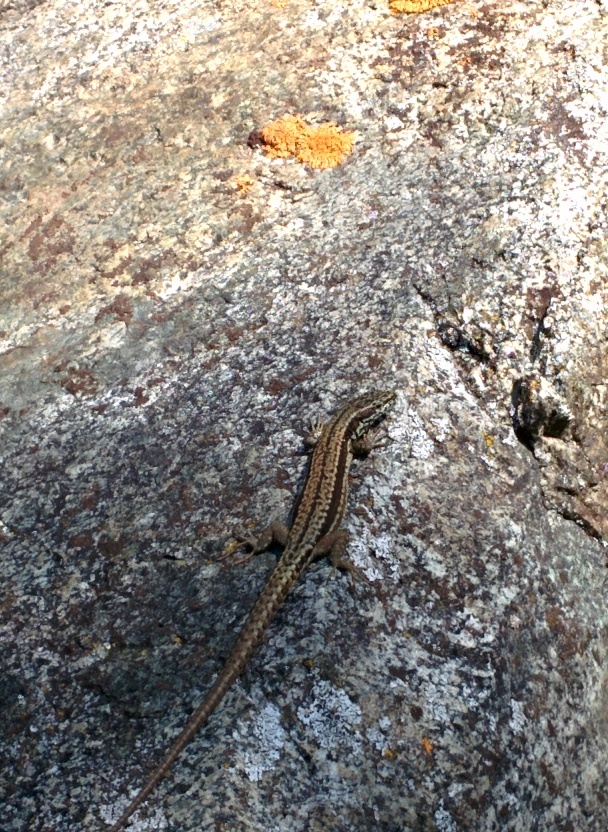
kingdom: Animalia
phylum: Chordata
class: Squamata
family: Lacertidae
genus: Podarcis
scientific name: Podarcis muralis
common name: Common wall lizard
